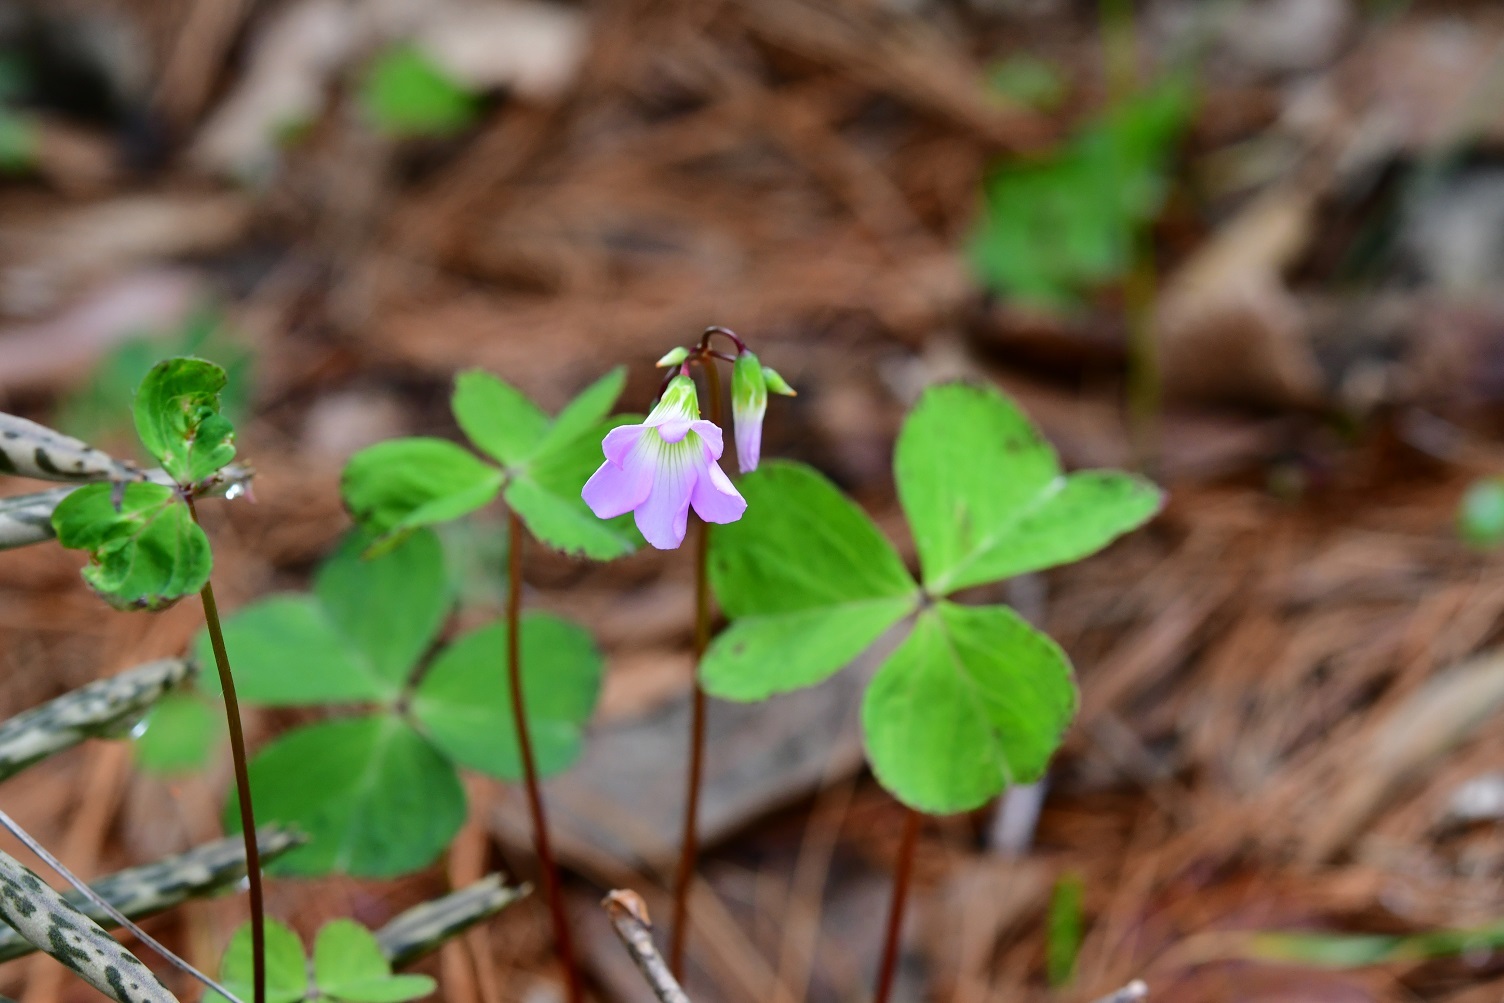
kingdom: Plantae
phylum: Tracheophyta
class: Magnoliopsida
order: Oxalidales
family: Oxalidaceae
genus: Oxalis
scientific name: Oxalis latifolia
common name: Garden pink-sorrel
